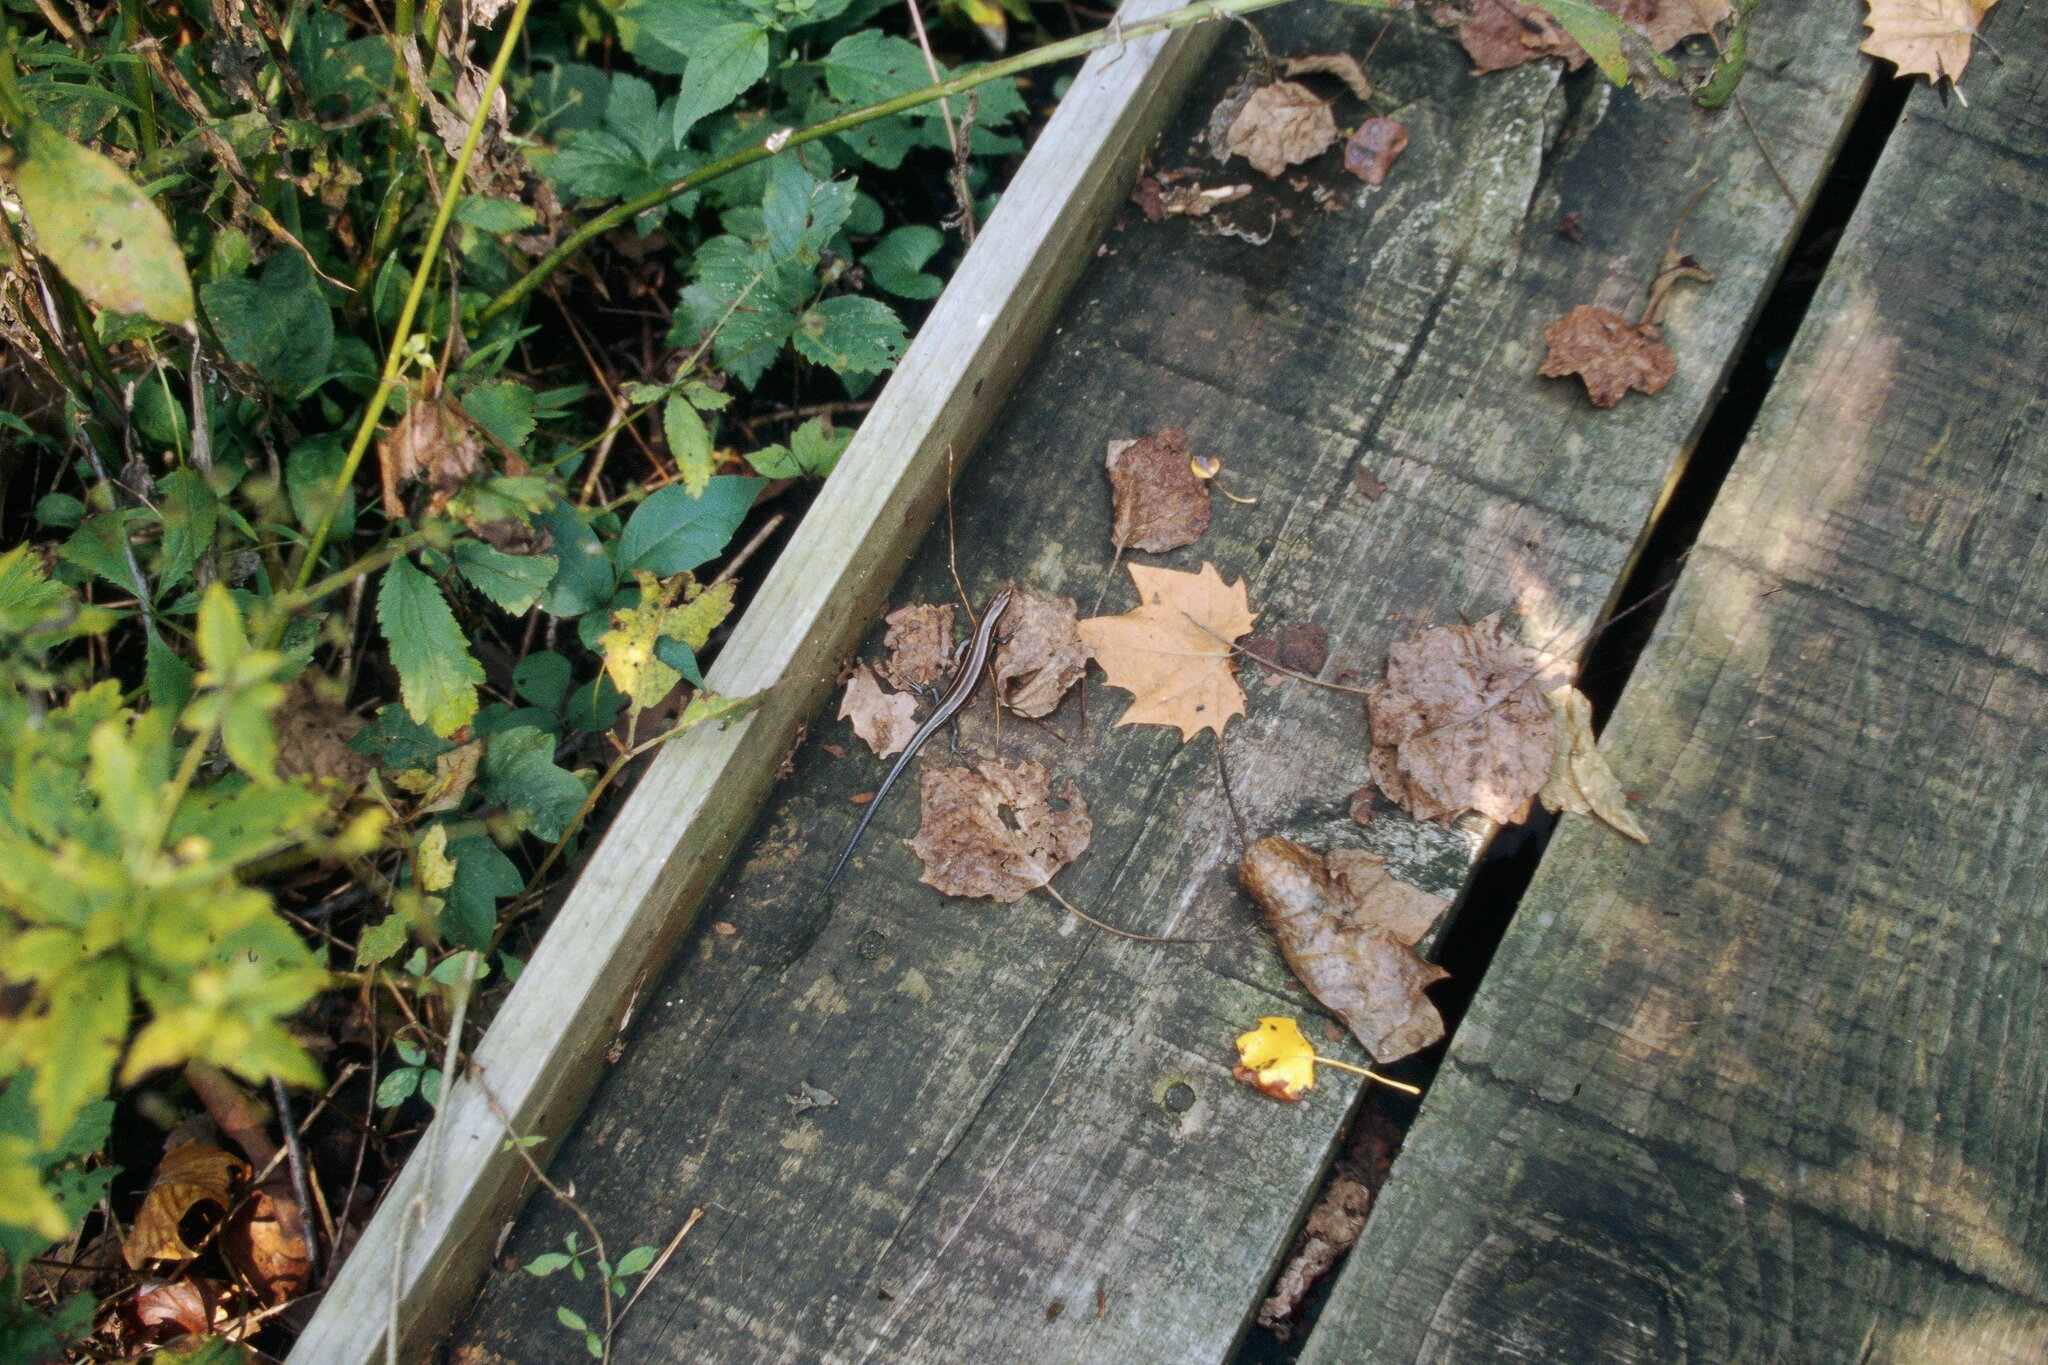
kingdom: Animalia
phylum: Chordata
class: Squamata
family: Scincidae
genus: Plestiodon
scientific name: Plestiodon fasciatus
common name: Five-lined skink
